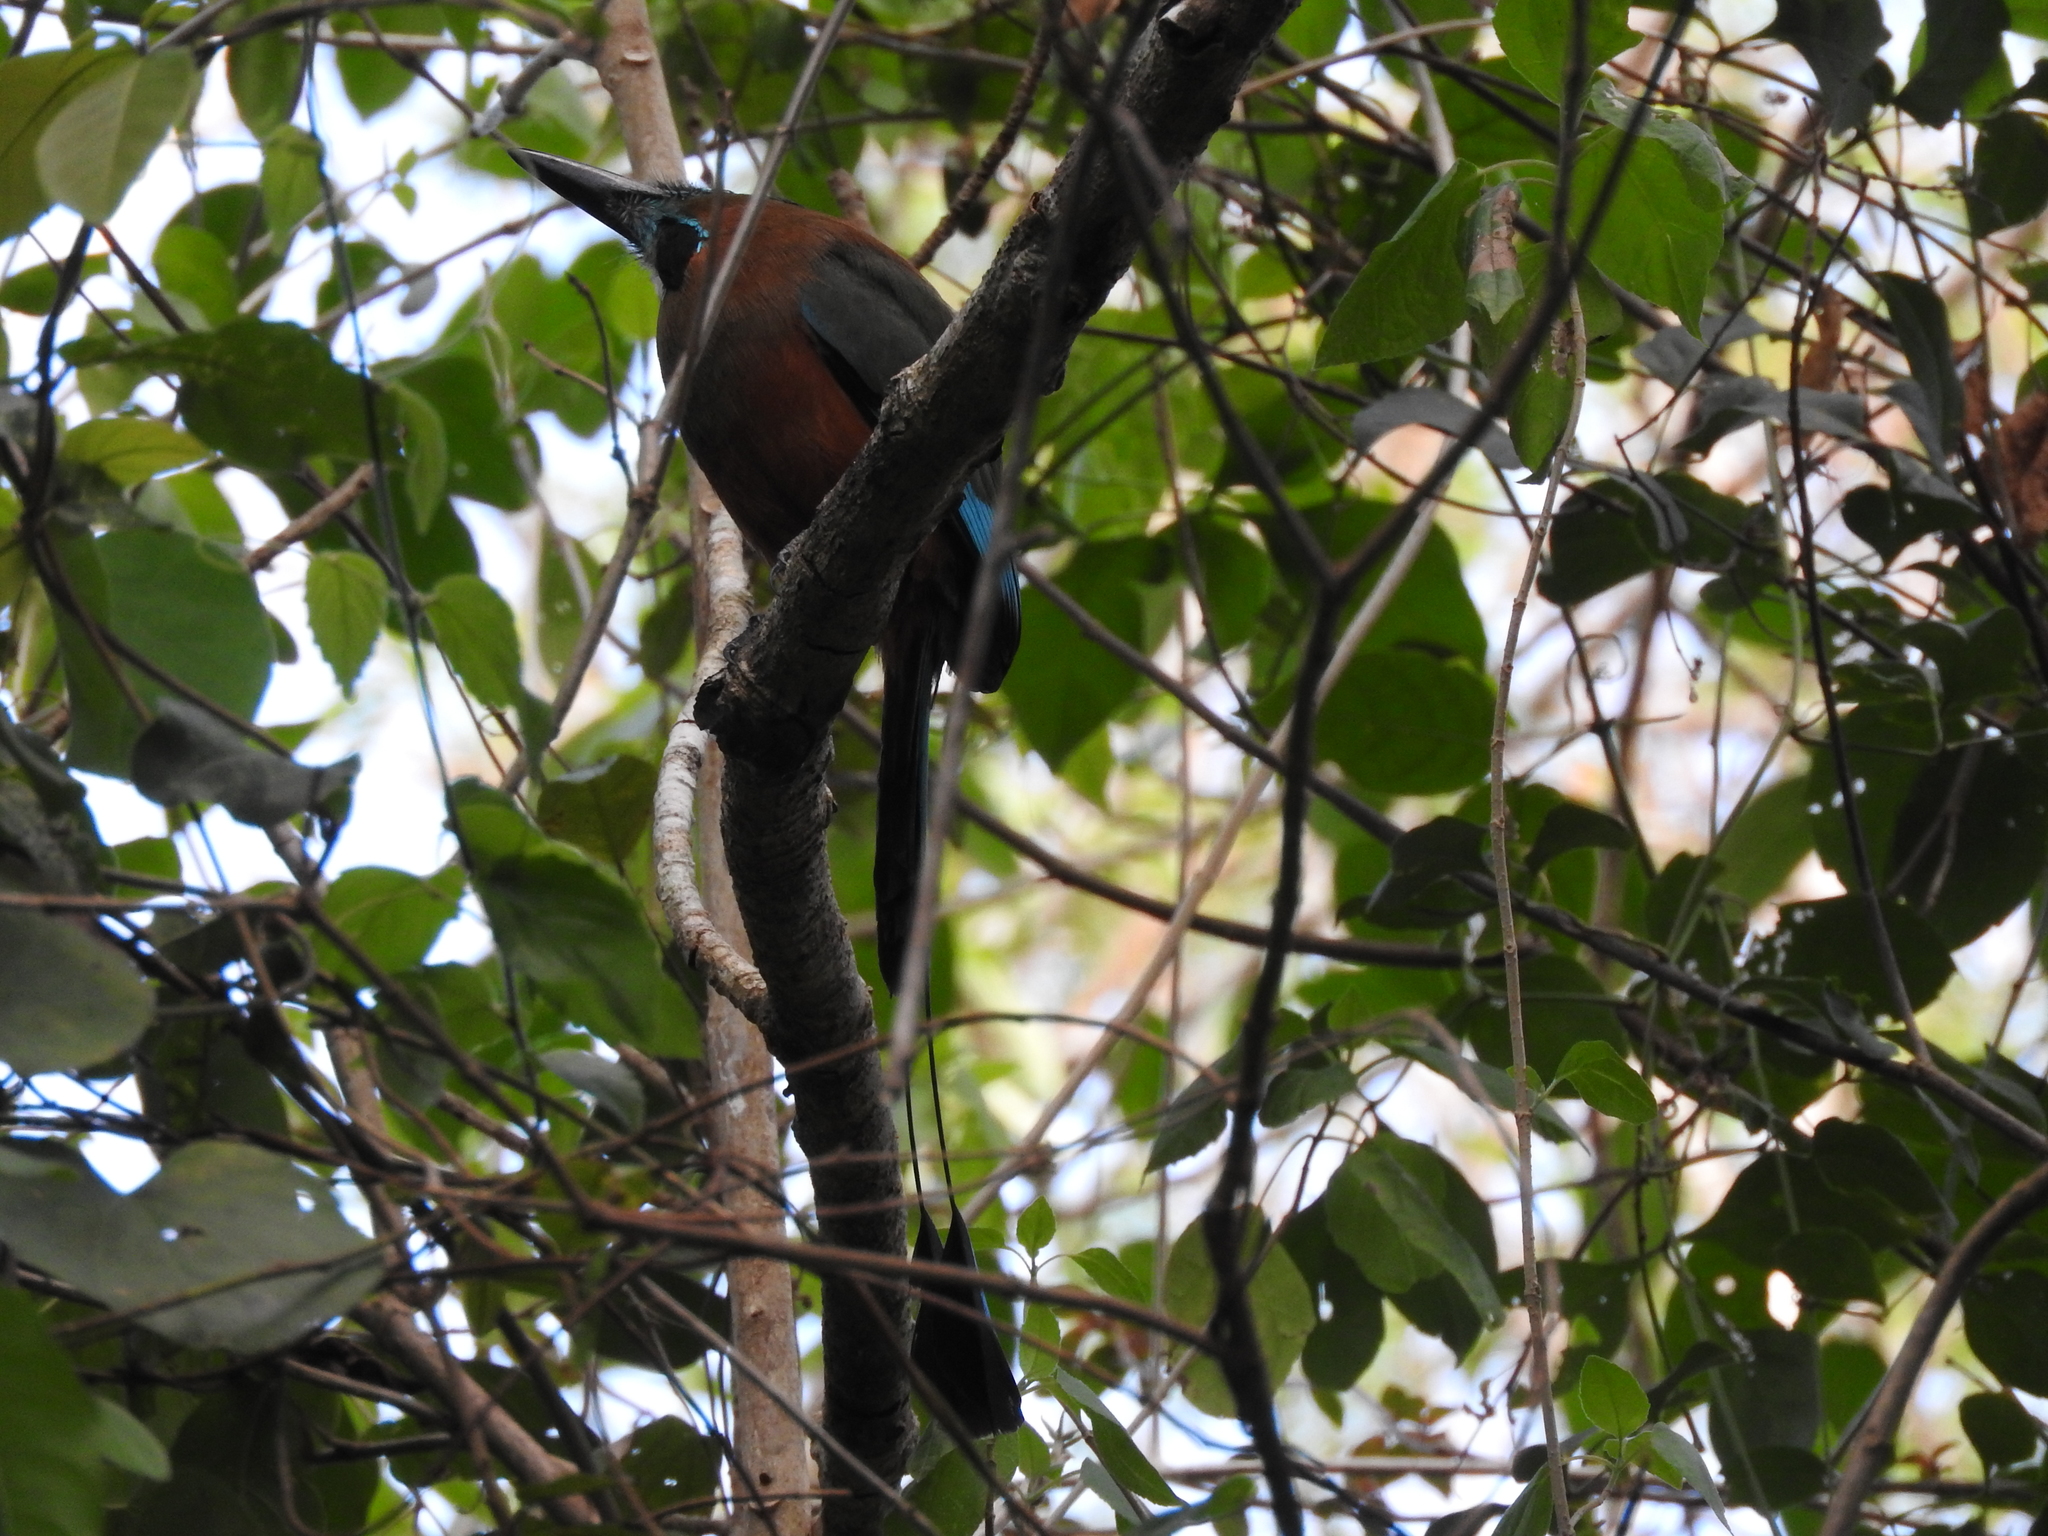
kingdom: Animalia
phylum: Chordata
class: Aves
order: Coraciiformes
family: Momotidae
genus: Eumomota
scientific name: Eumomota superciliosa
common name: Turquoise-browed motmot
